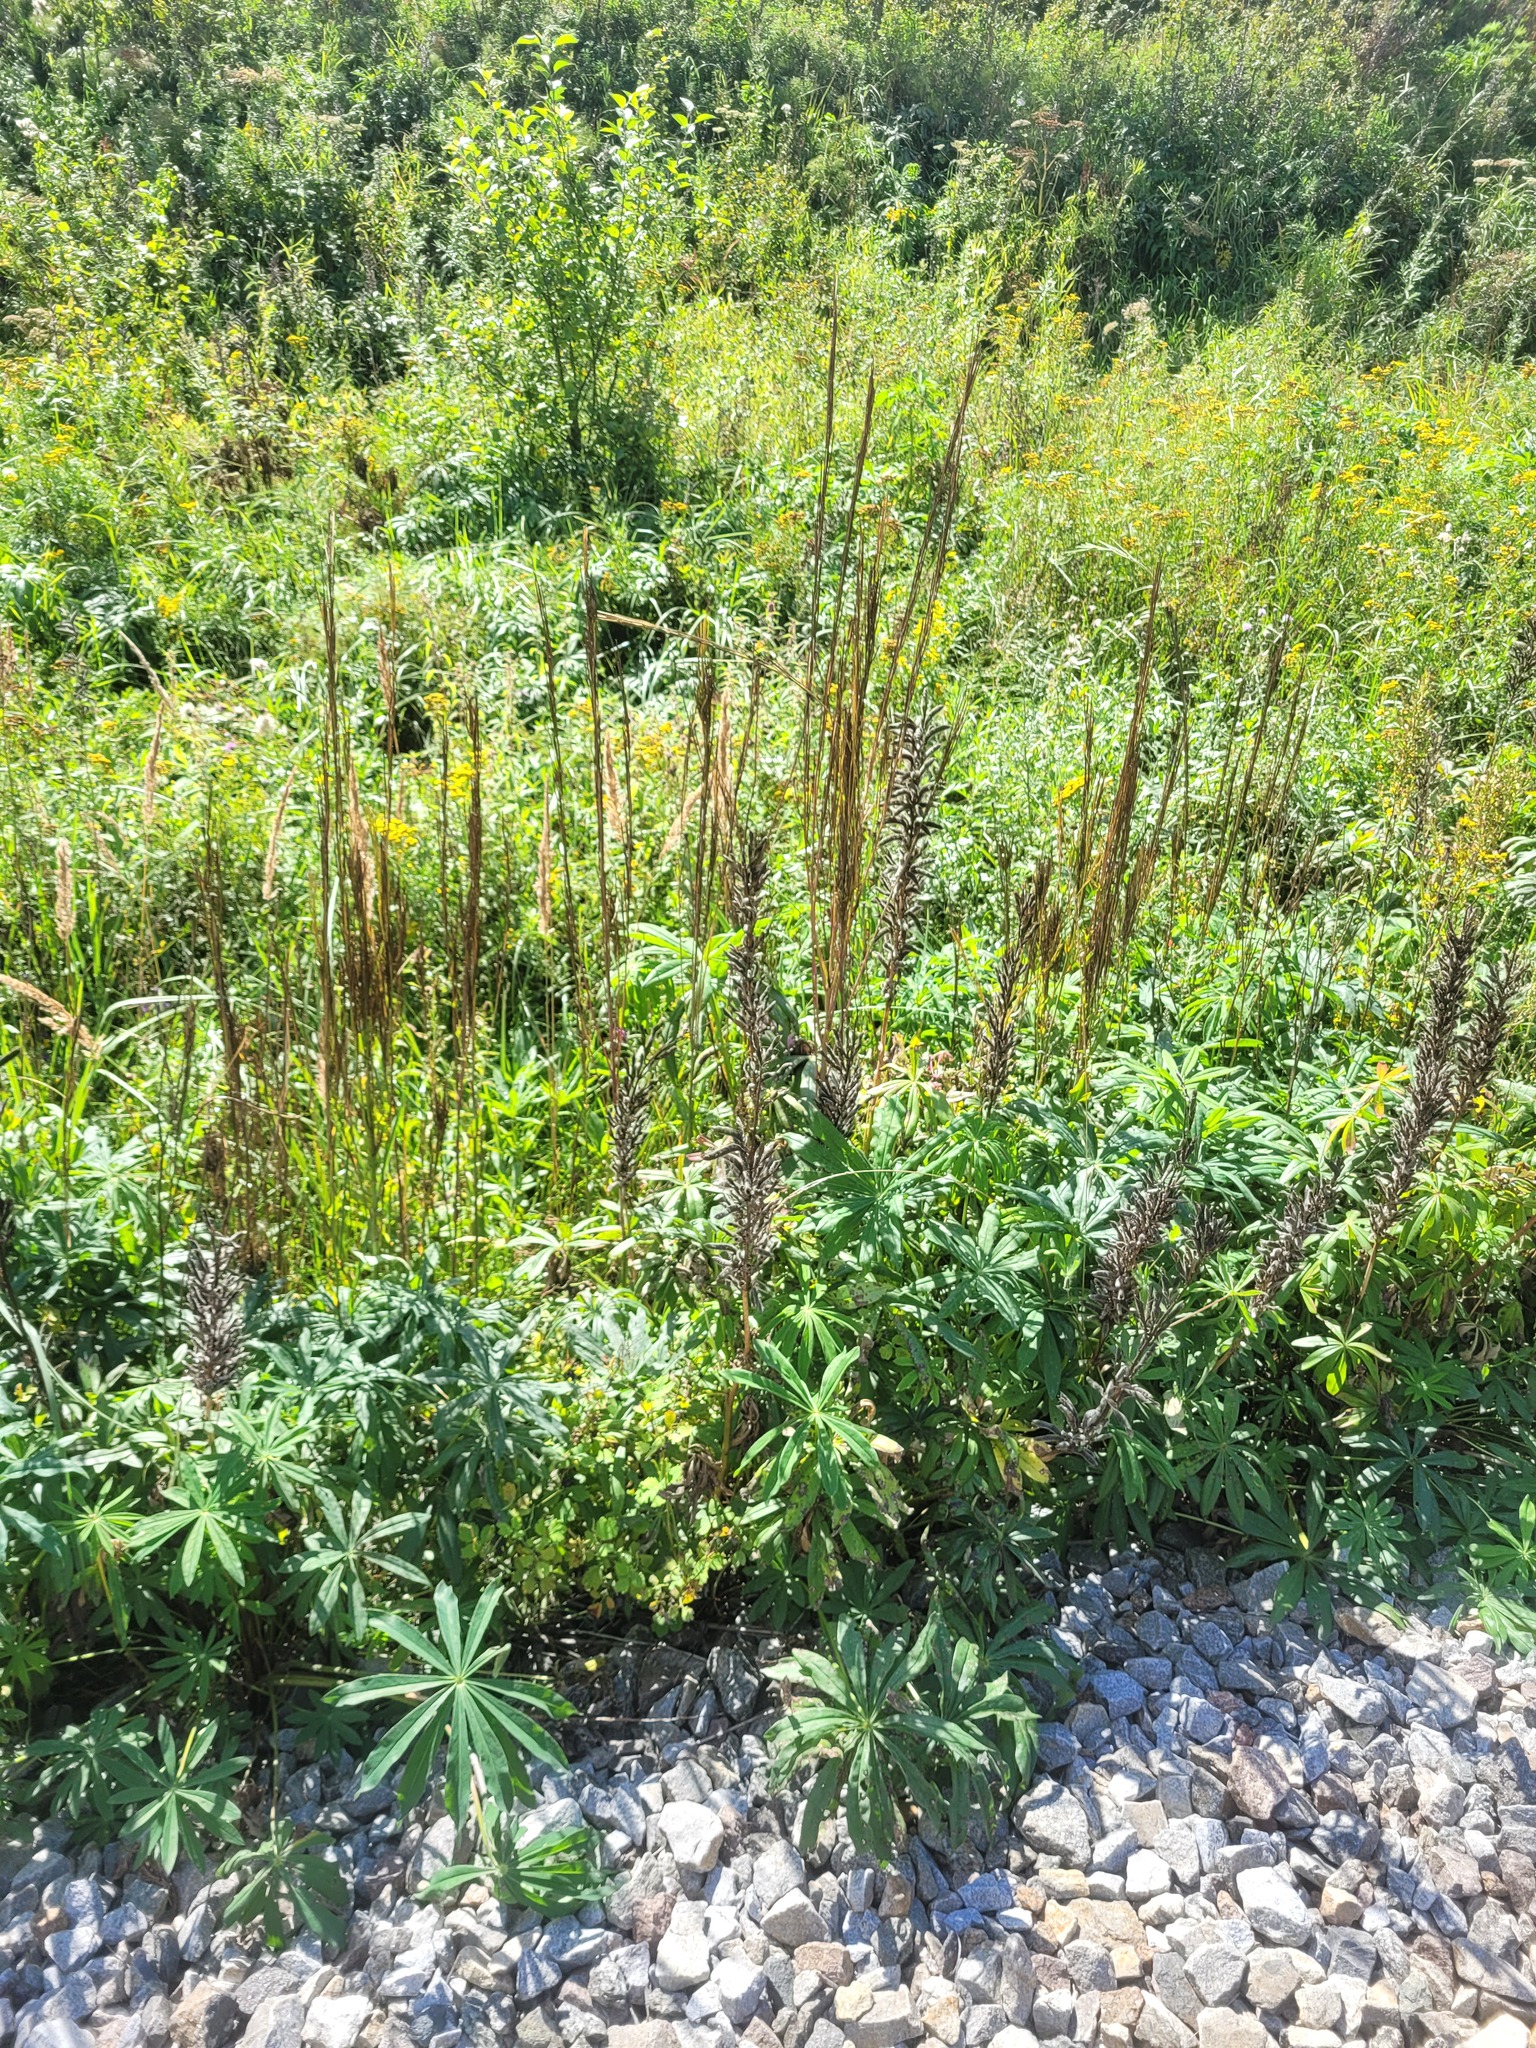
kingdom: Plantae
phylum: Tracheophyta
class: Magnoliopsida
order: Fabales
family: Fabaceae
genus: Lupinus
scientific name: Lupinus polyphyllus
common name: Garden lupin
